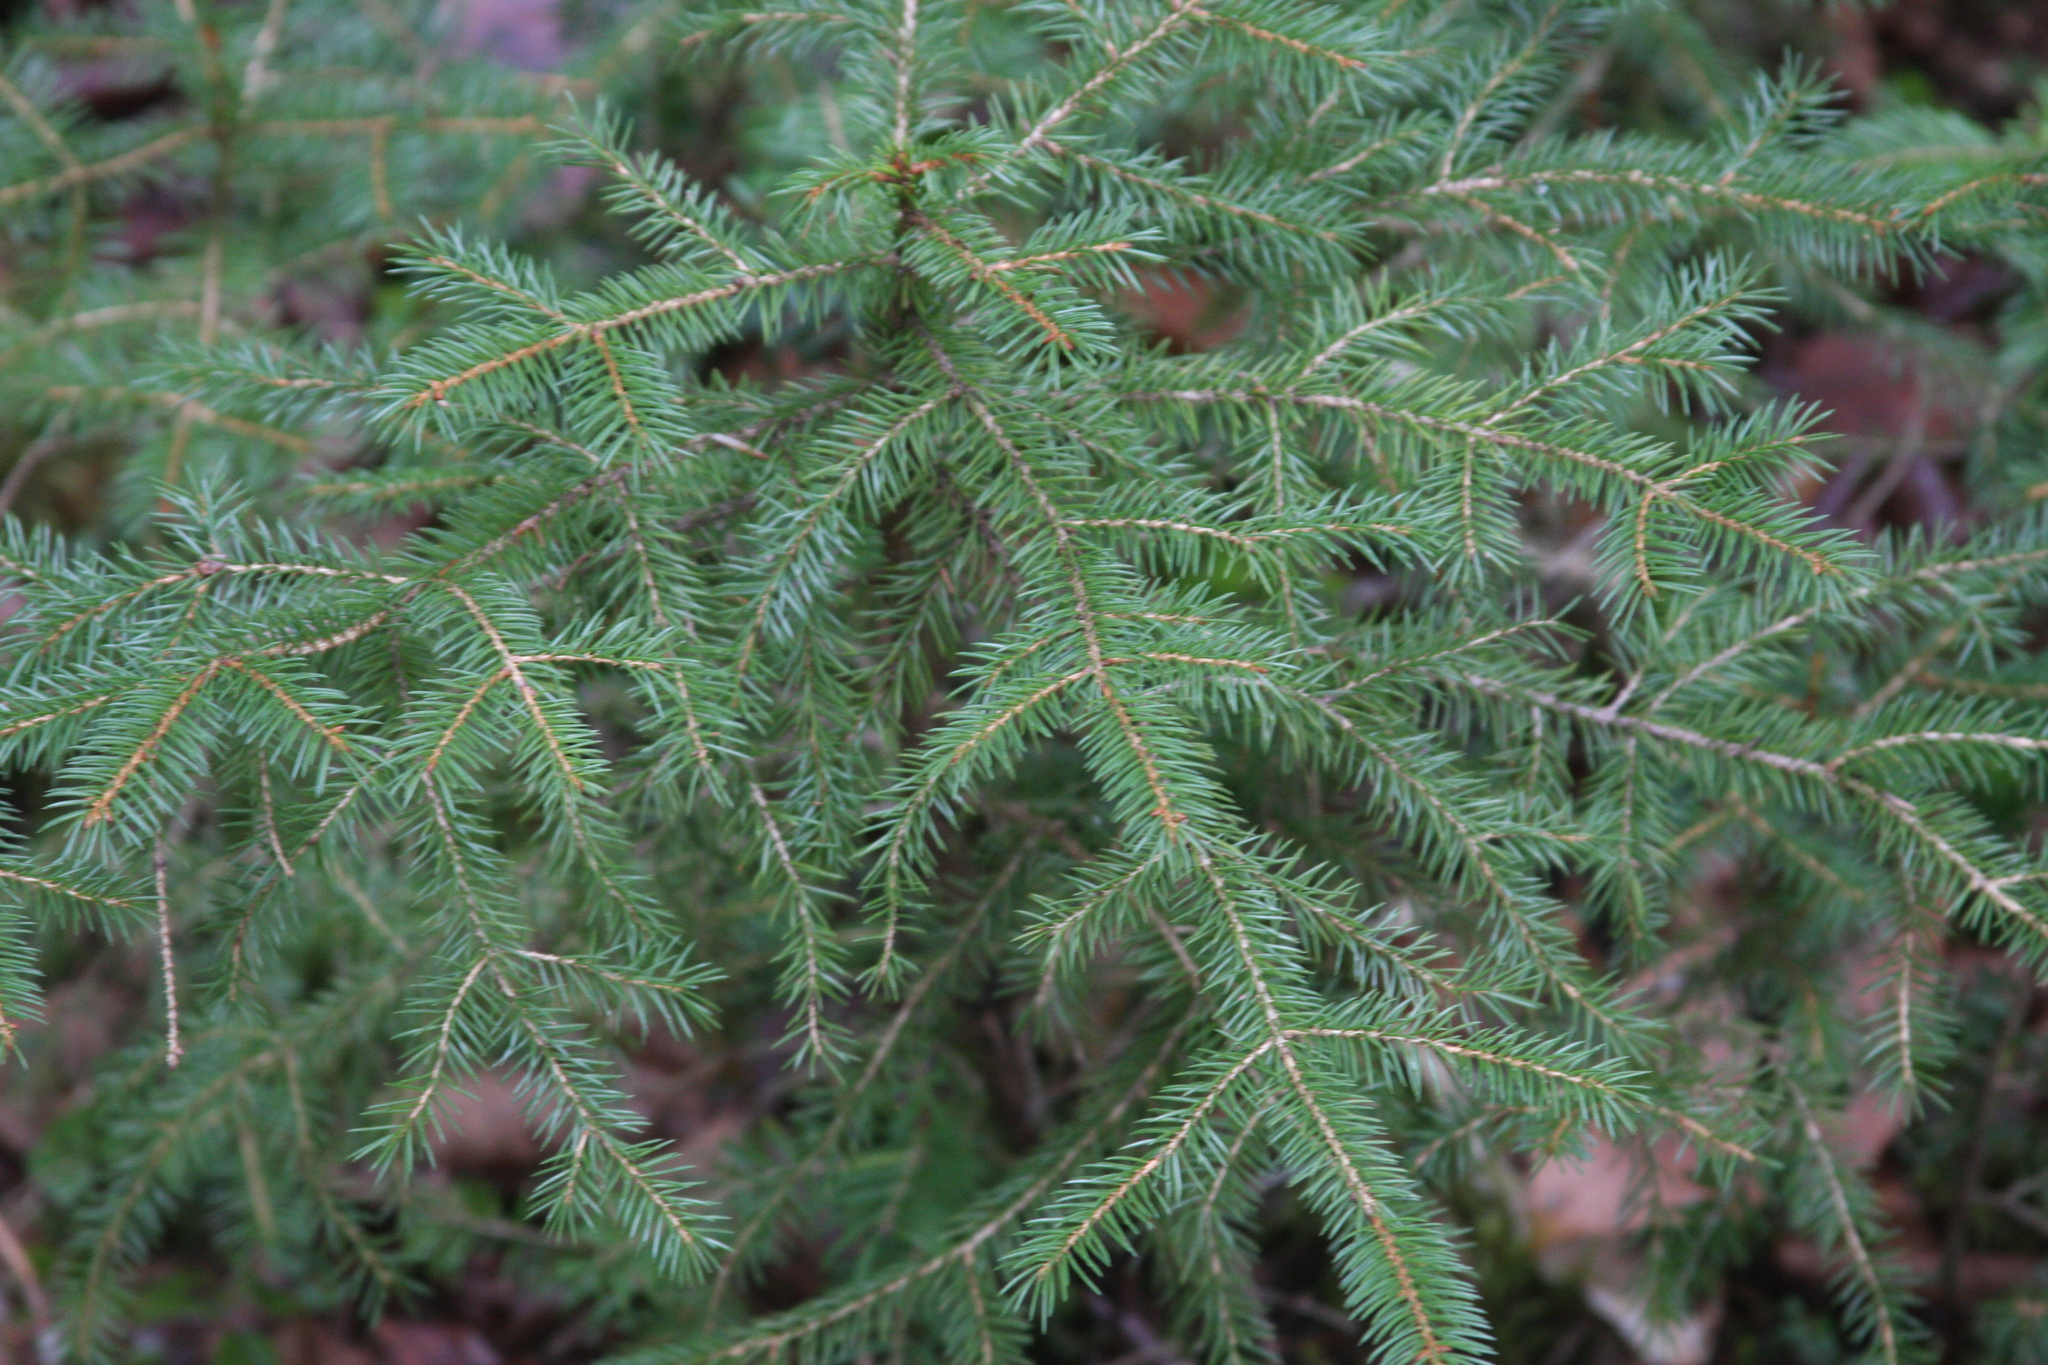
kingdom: Plantae
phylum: Tracheophyta
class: Pinopsida
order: Pinales
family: Pinaceae
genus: Picea
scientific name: Picea rubens
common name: Red spruce
